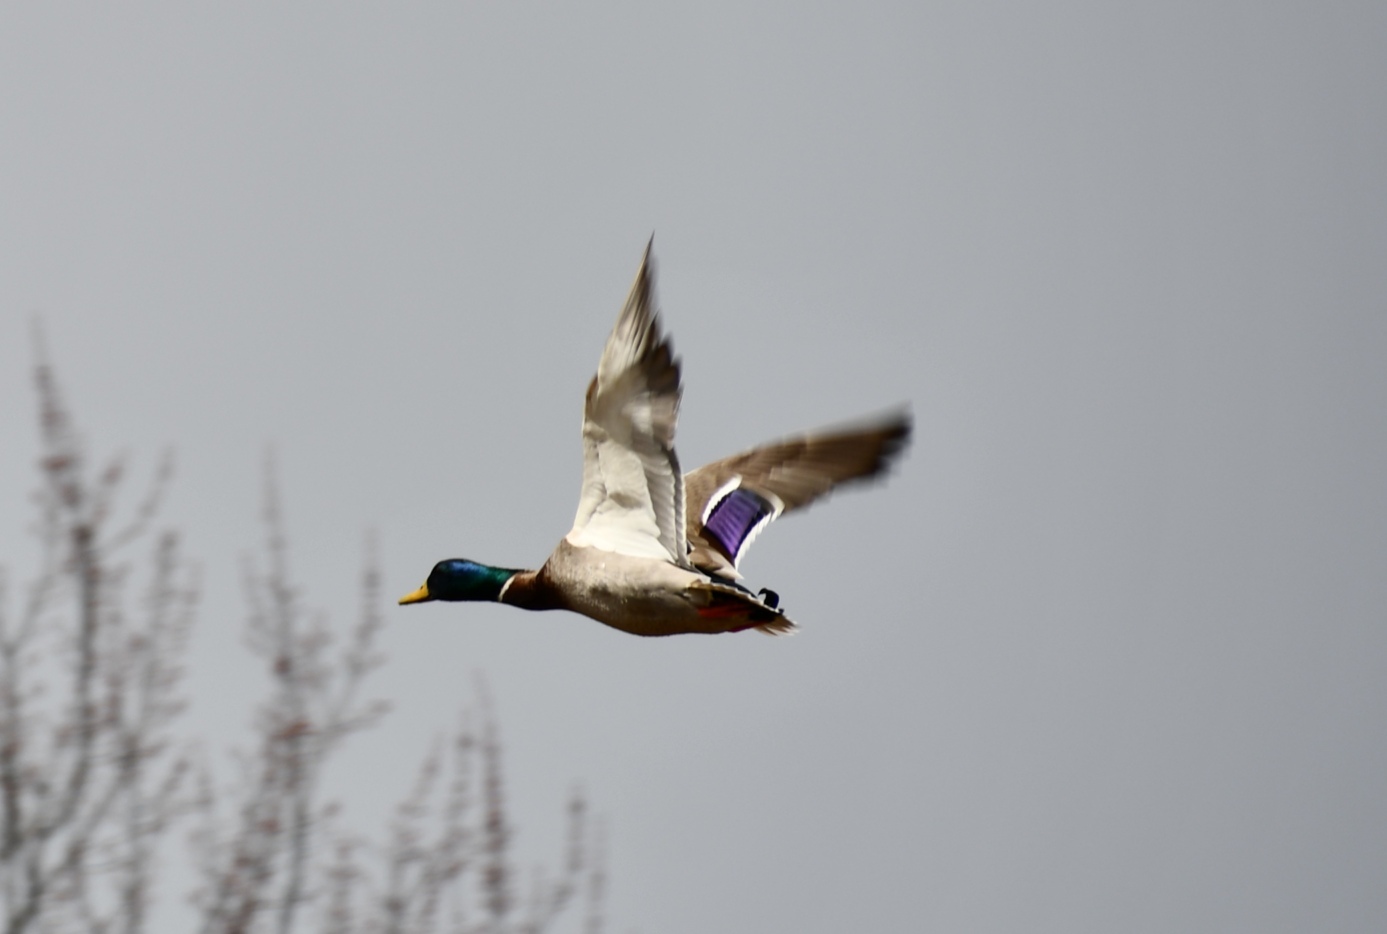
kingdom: Animalia
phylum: Chordata
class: Aves
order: Anseriformes
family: Anatidae
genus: Anas
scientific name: Anas platyrhynchos
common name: Mallard
